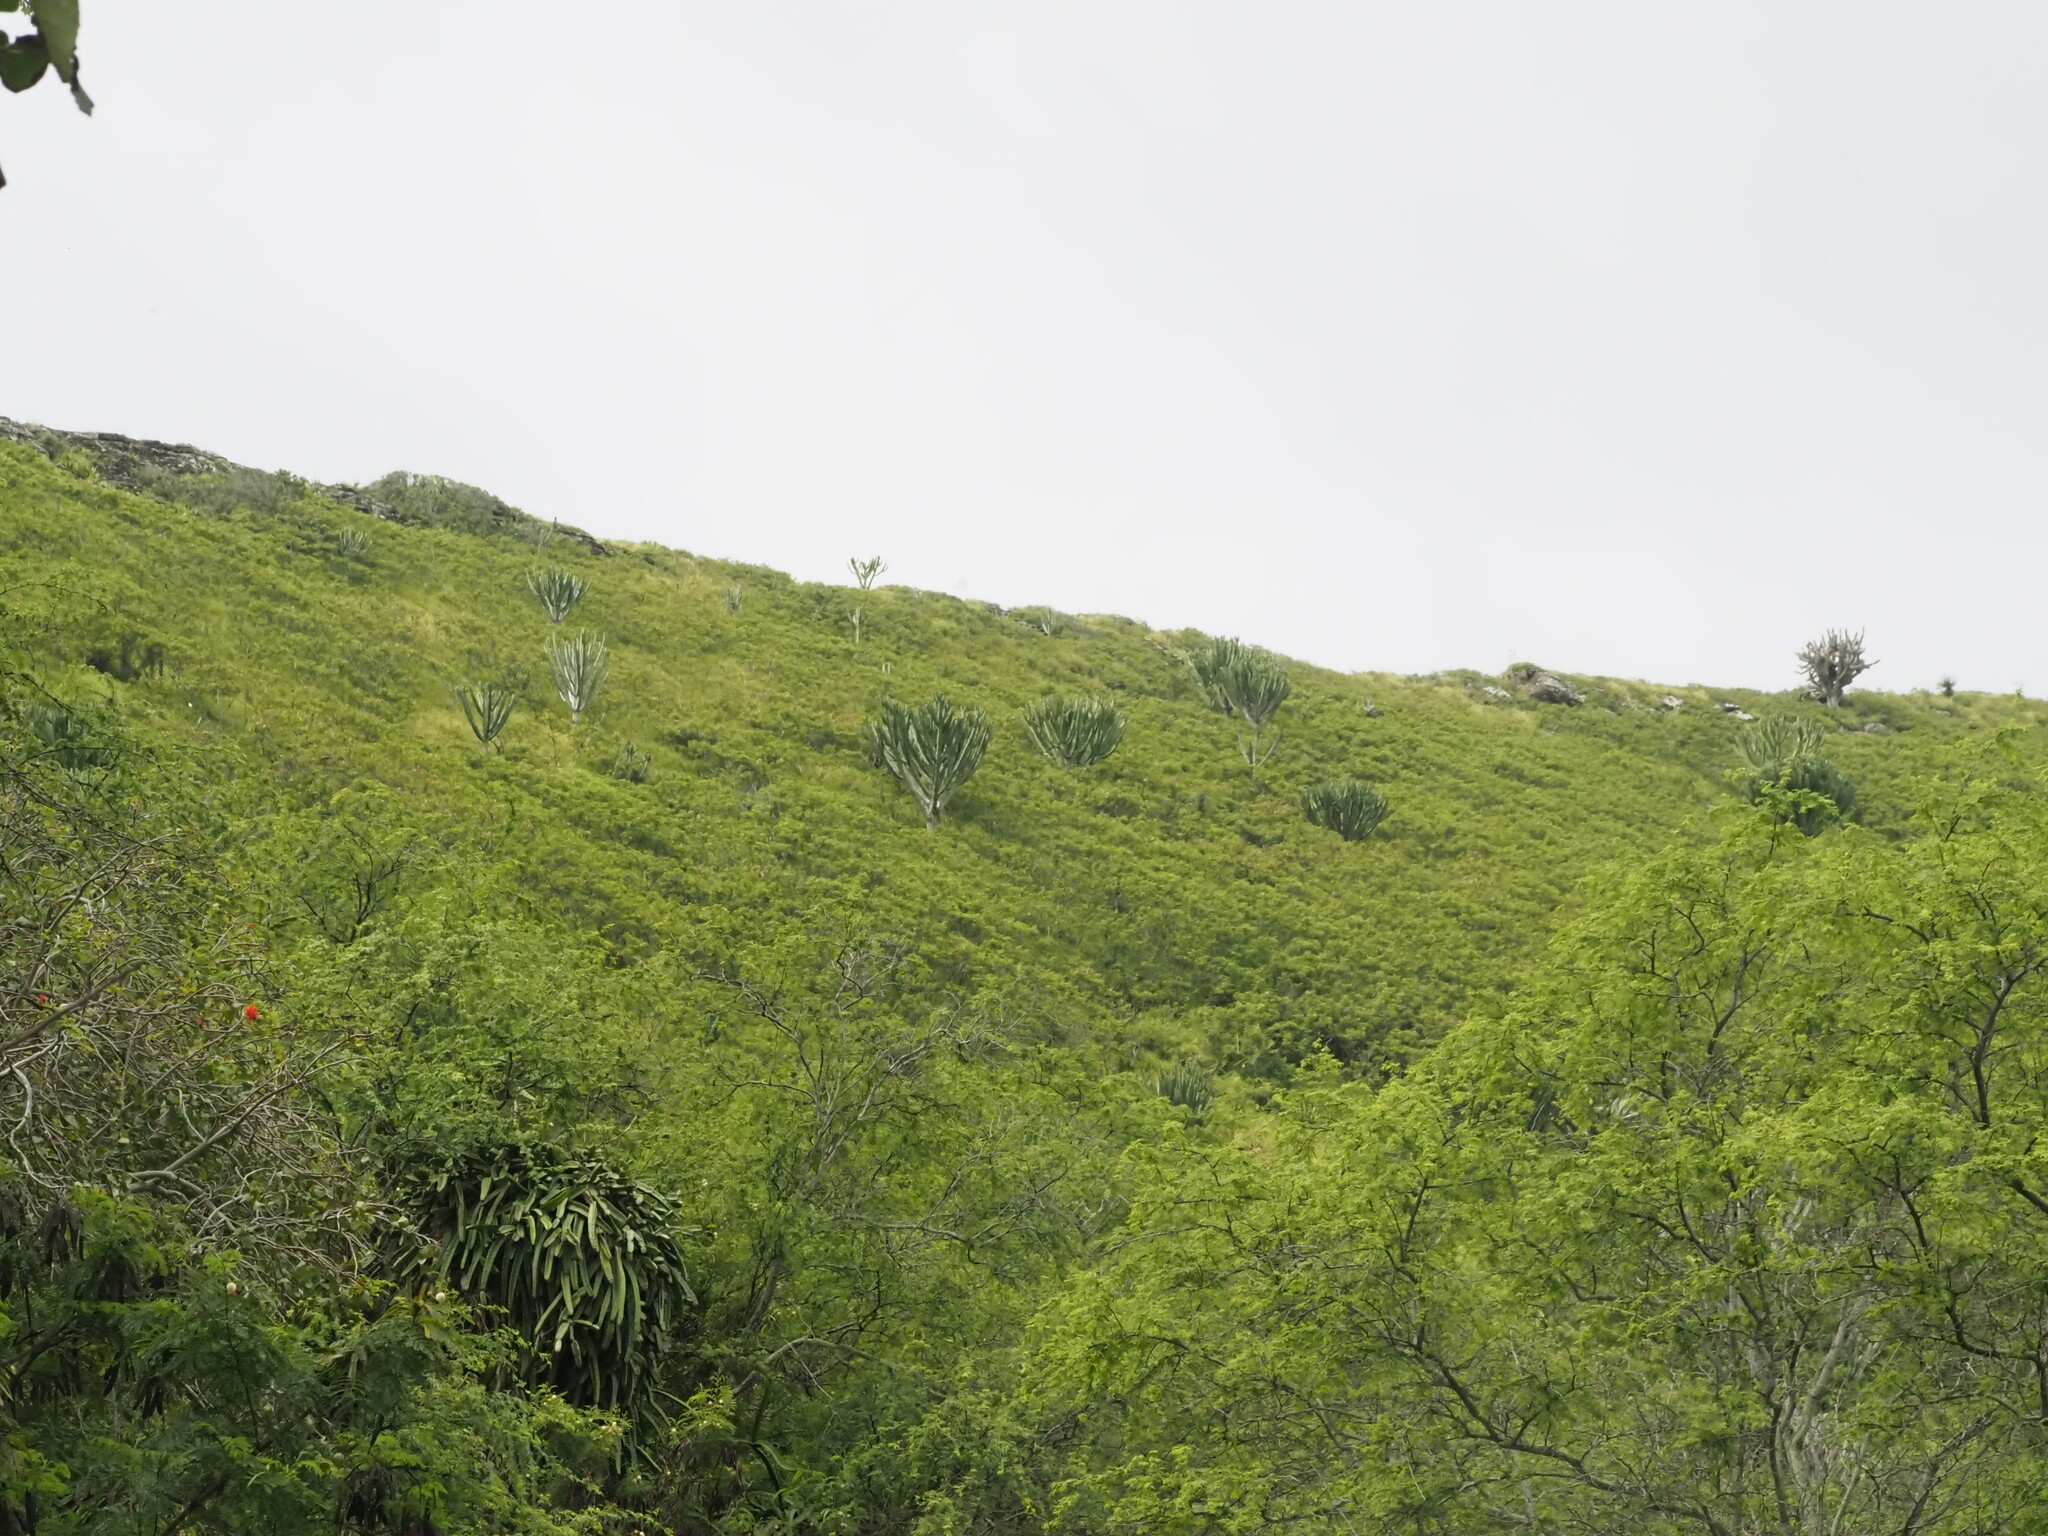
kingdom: Plantae
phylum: Tracheophyta
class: Magnoliopsida
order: Malpighiales
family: Euphorbiaceae
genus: Euphorbia
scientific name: Euphorbia ingens
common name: Cactus spurge
